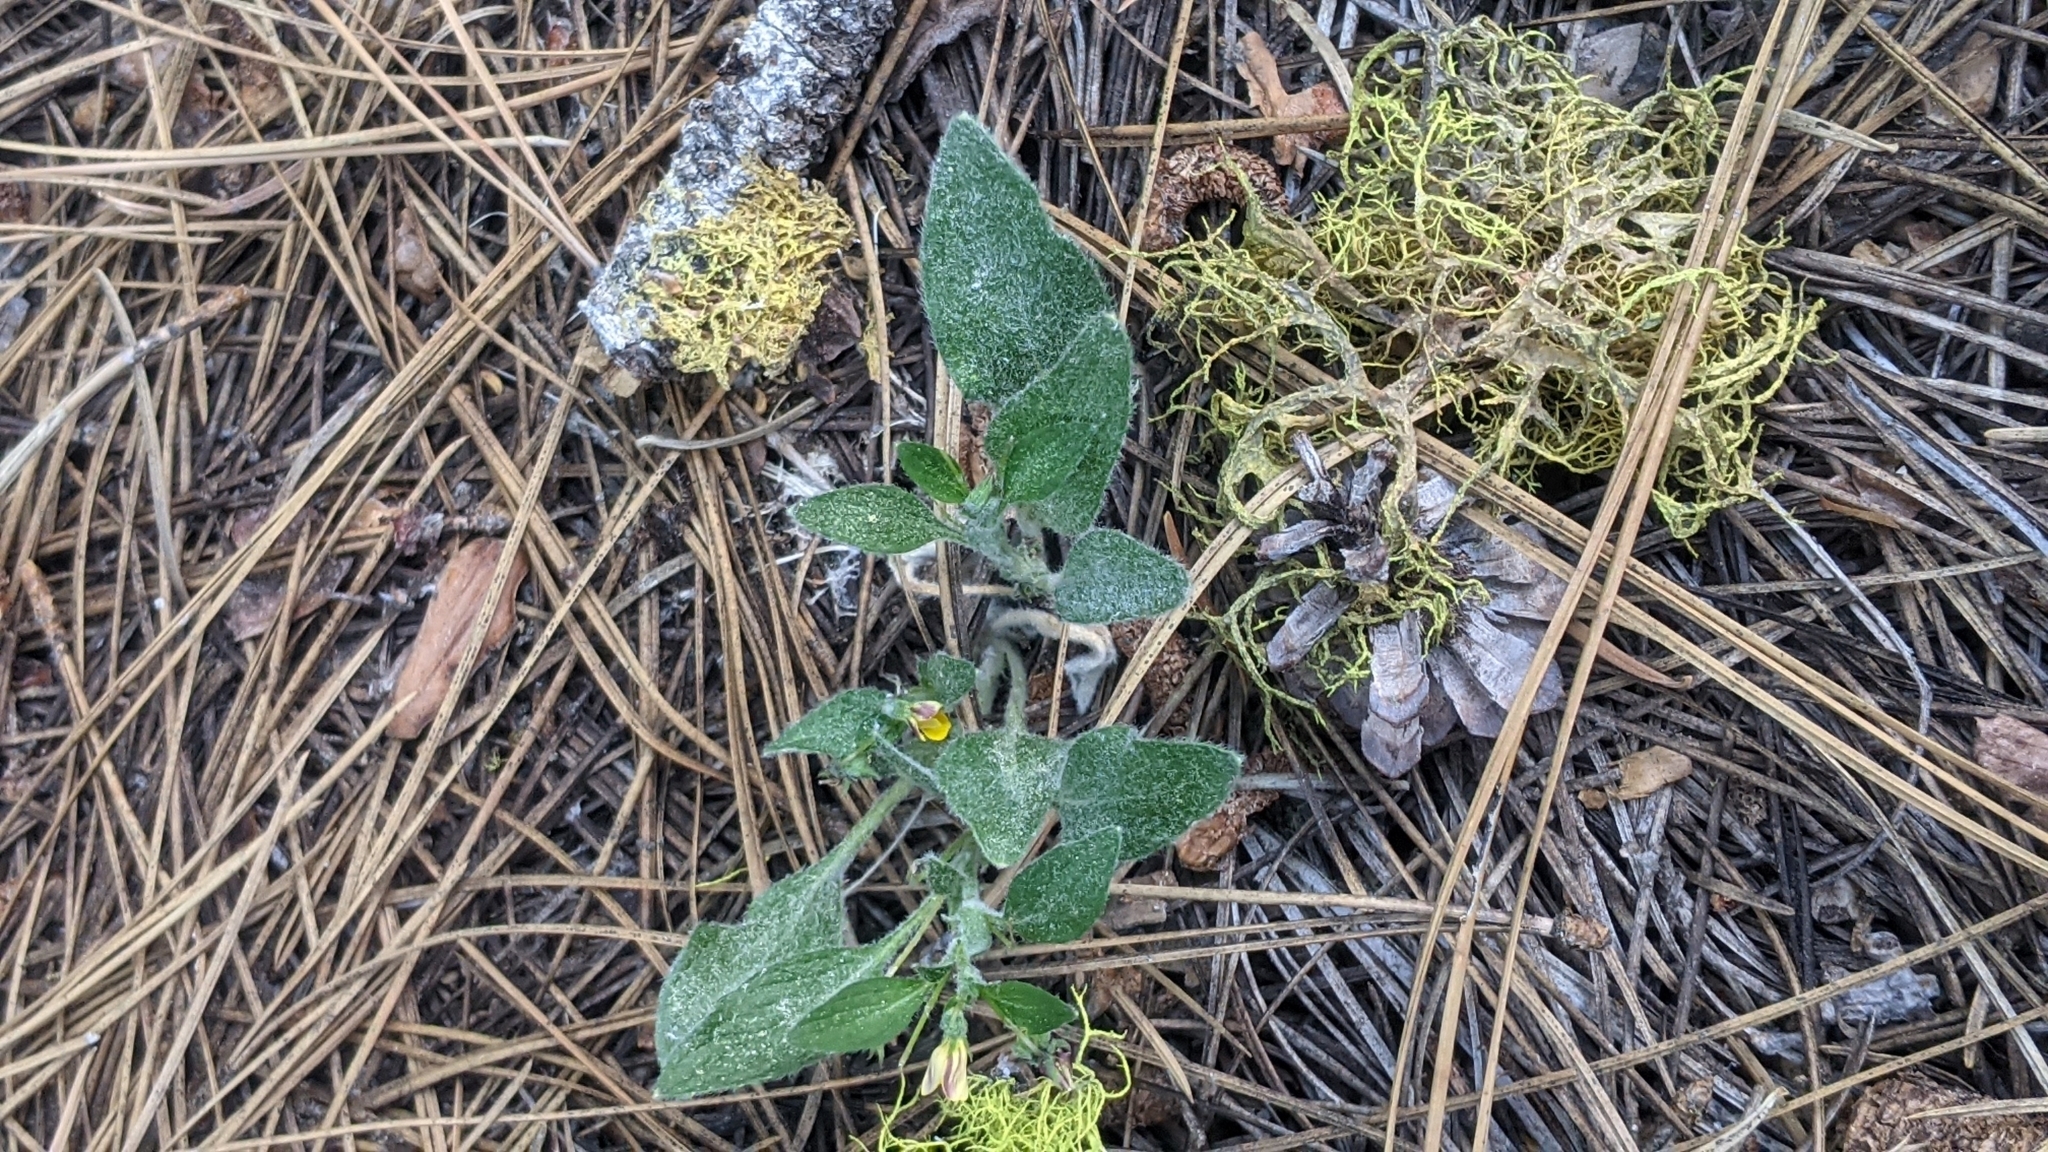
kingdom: Plantae
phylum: Tracheophyta
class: Magnoliopsida
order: Malpighiales
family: Violaceae
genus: Viola
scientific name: Viola tomentosa
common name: Woolly violet
